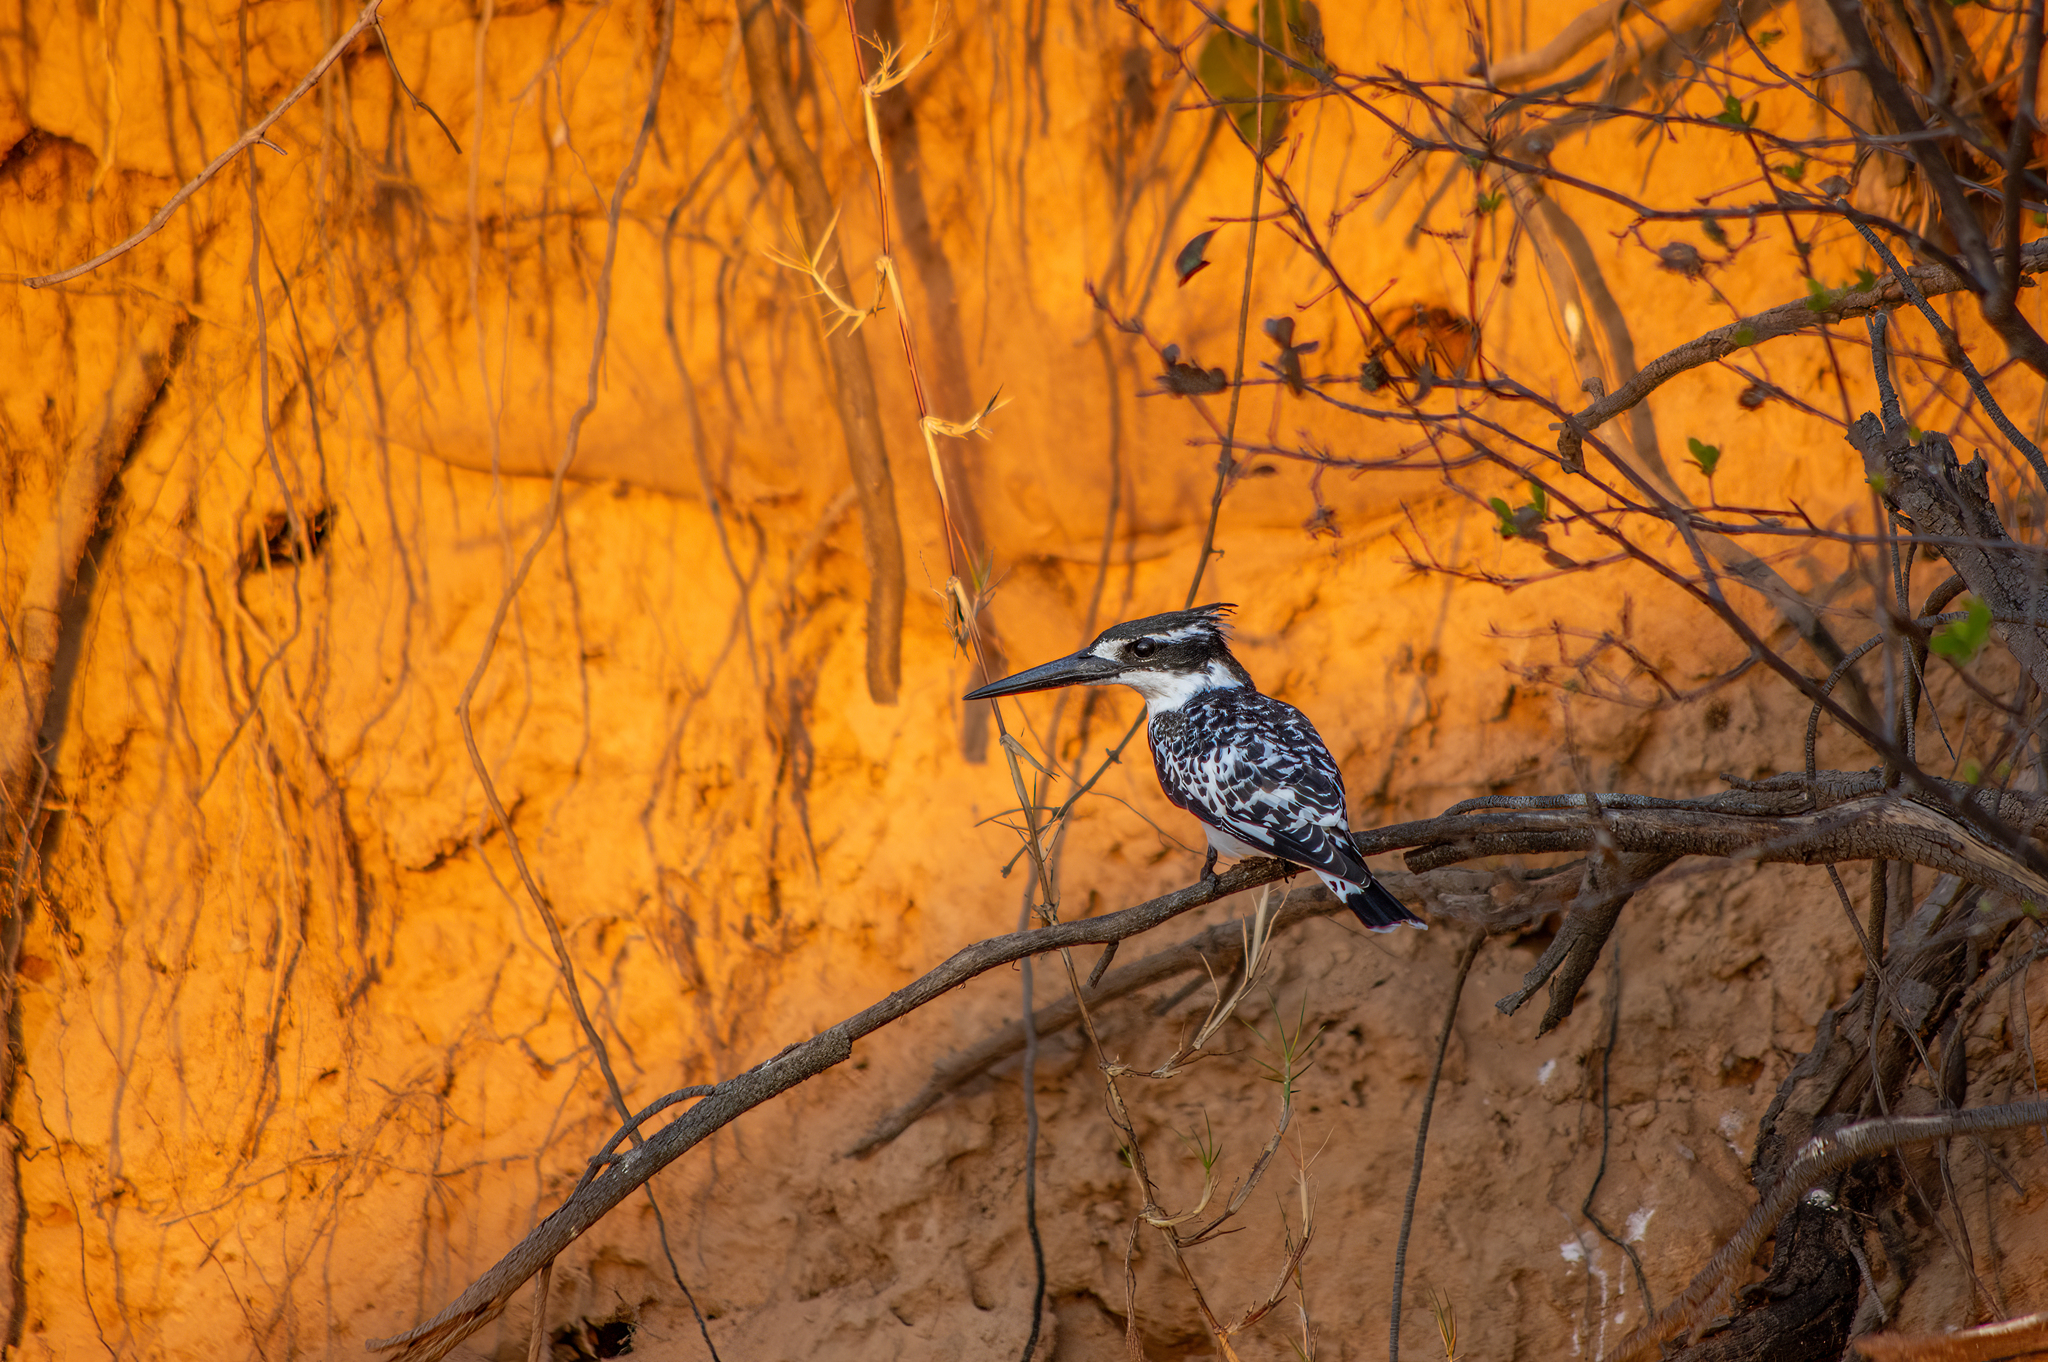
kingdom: Animalia
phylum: Chordata
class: Aves
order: Coraciiformes
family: Alcedinidae
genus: Ceryle
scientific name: Ceryle rudis
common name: Pied kingfisher
